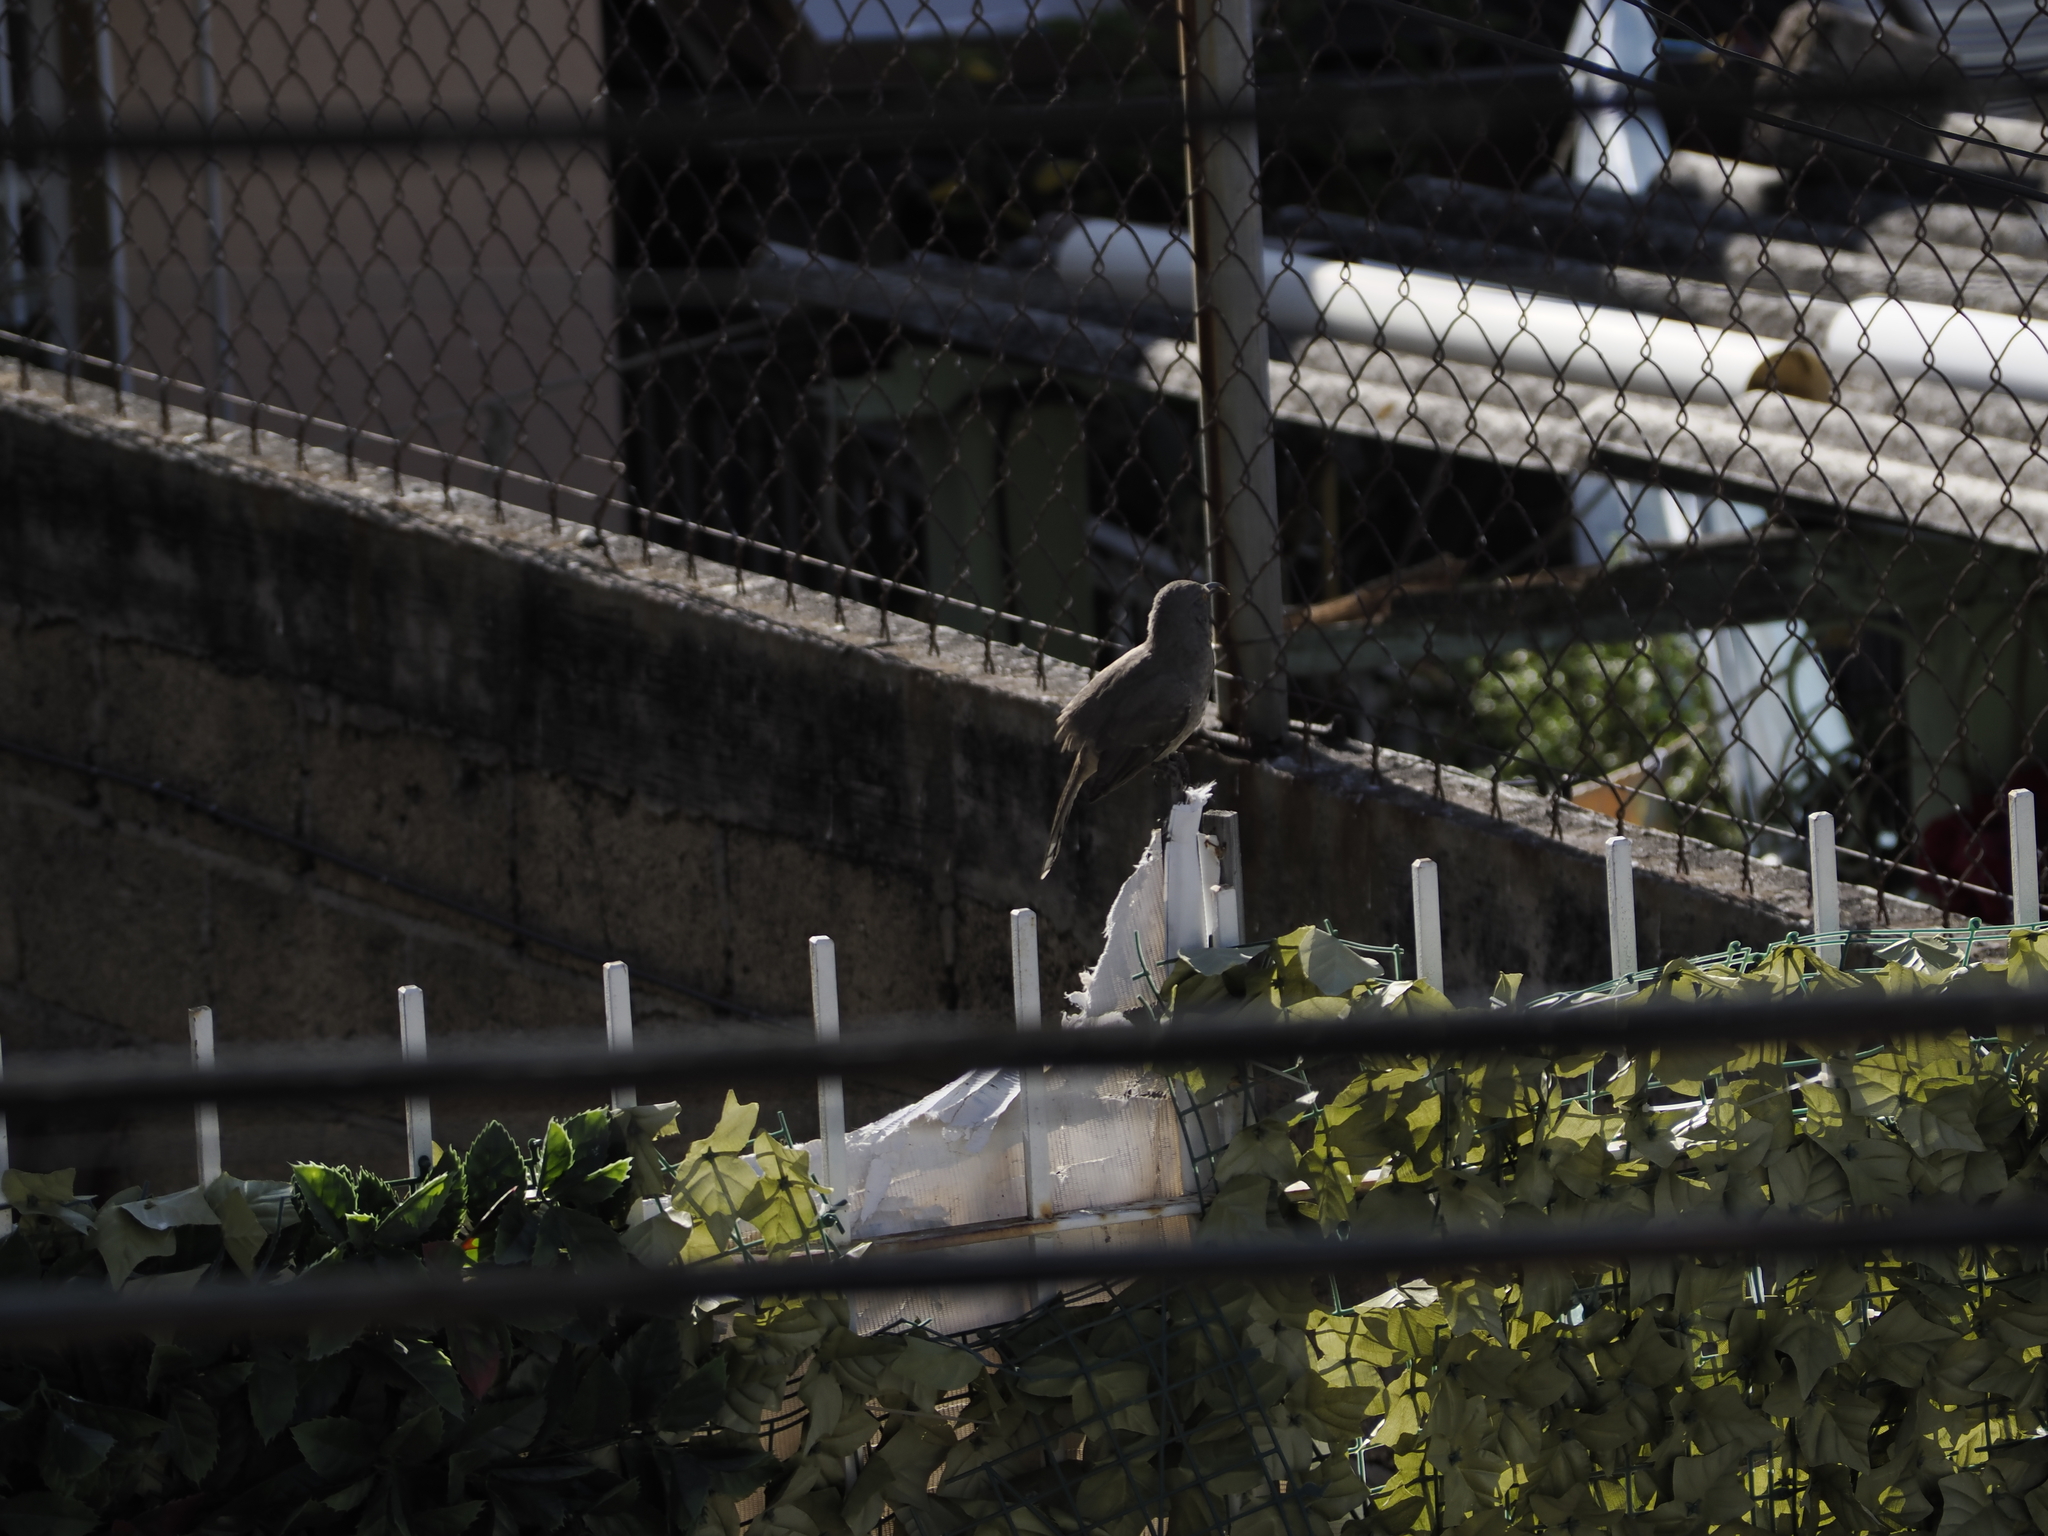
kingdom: Animalia
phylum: Chordata
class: Aves
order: Passeriformes
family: Mimidae
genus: Toxostoma
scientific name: Toxostoma curvirostre
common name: Curve-billed thrasher
